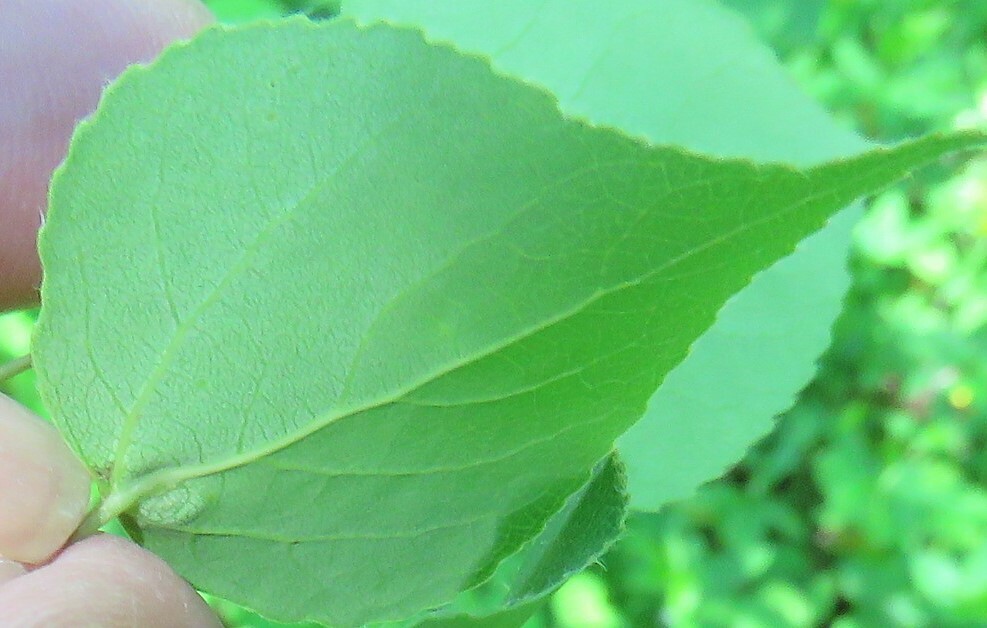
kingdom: Animalia
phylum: Arthropoda
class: Insecta
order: Diptera
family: Cecidomyiidae
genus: Harmandiola
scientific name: Harmandiola tremulae
